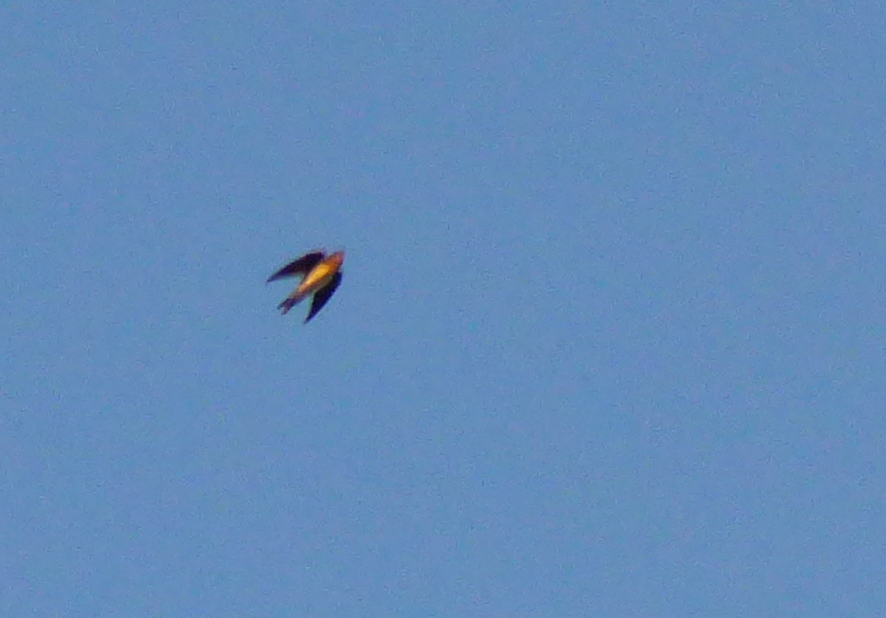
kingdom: Animalia
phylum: Chordata
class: Aves
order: Passeriformes
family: Hirundinidae
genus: Hirundo
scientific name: Hirundo rustica
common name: Barn swallow
